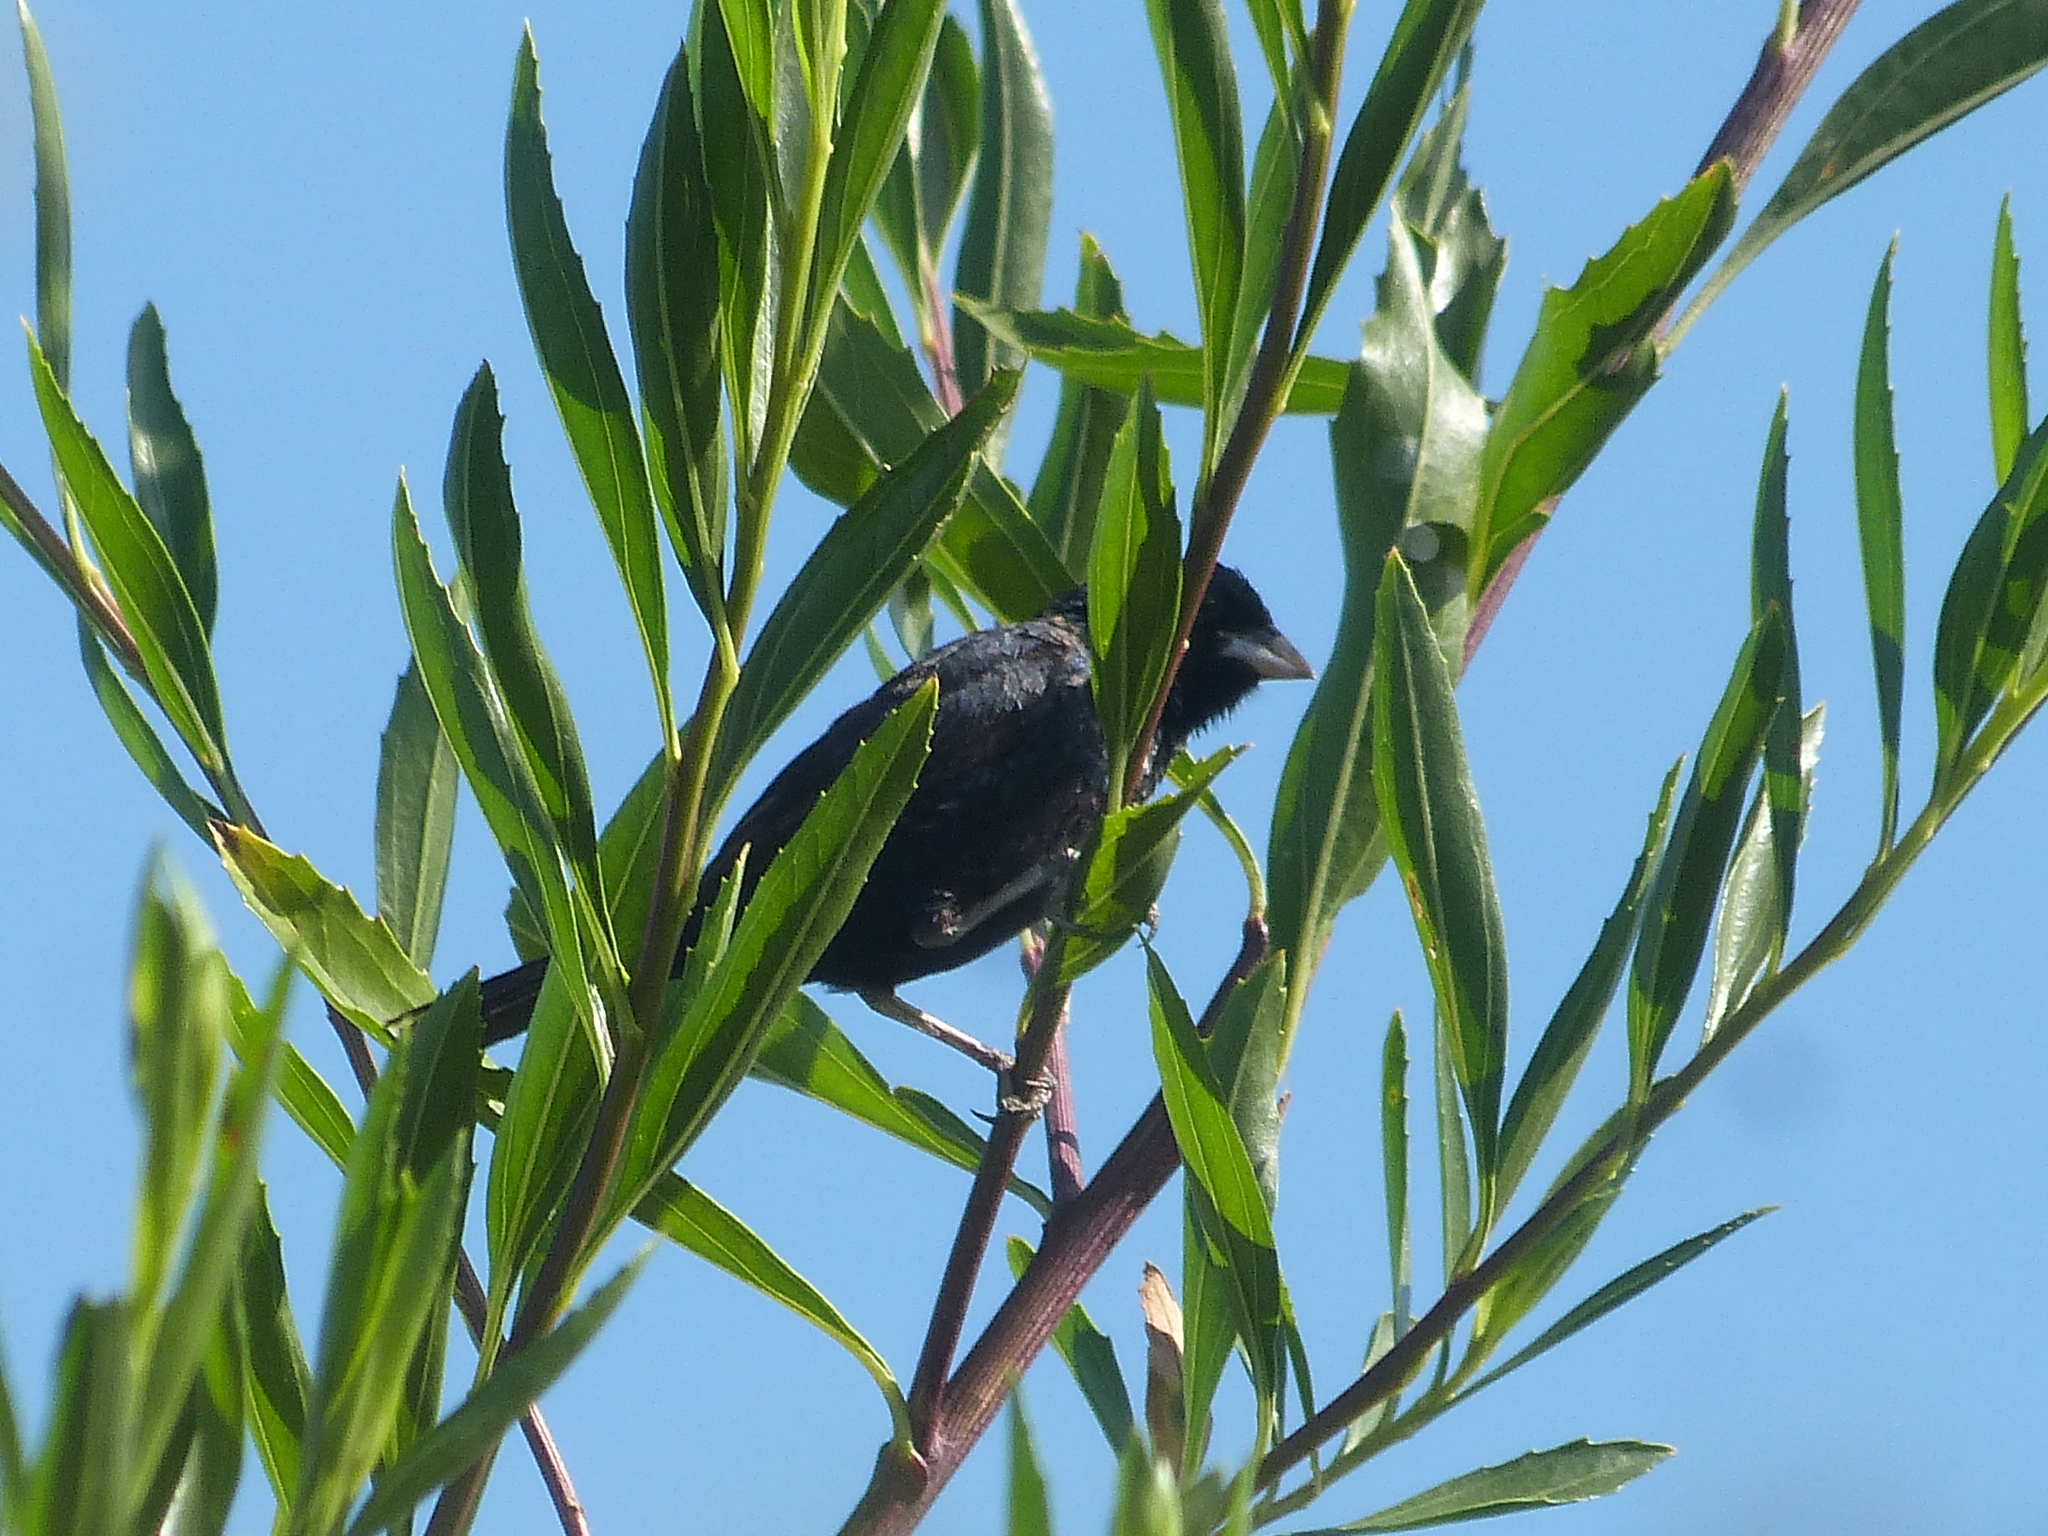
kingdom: Animalia
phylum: Chordata
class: Aves
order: Passeriformes
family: Thraupidae
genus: Volatinia
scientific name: Volatinia jacarina
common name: Blue-black grassquit
